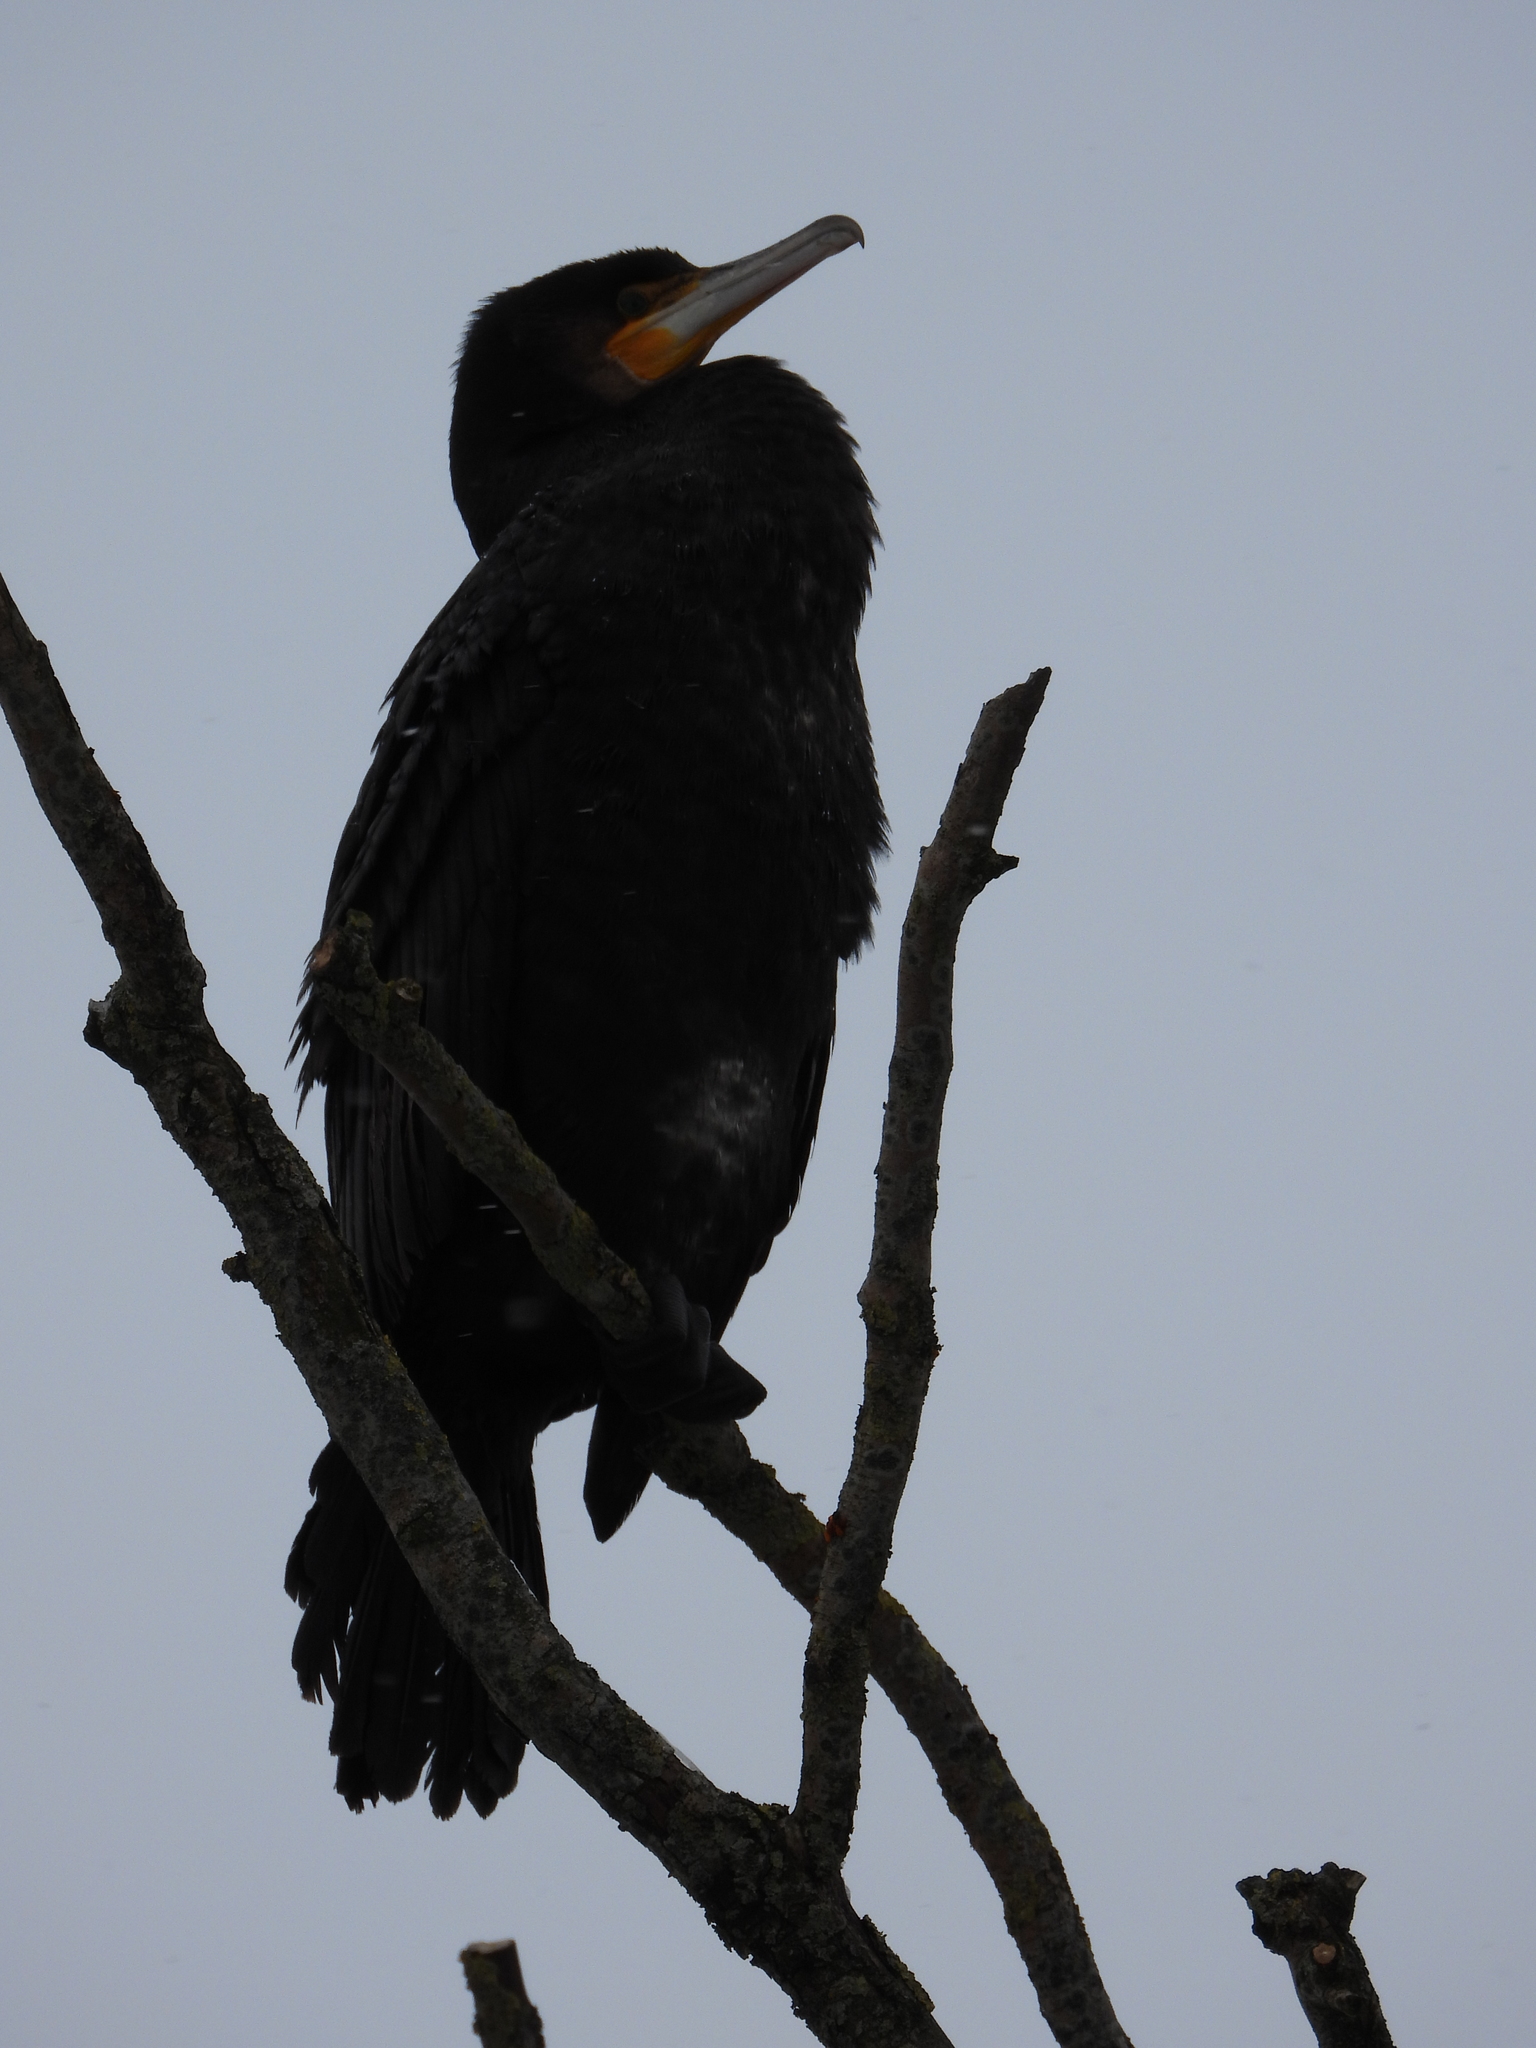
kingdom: Animalia
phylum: Chordata
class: Aves
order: Suliformes
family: Phalacrocoracidae
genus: Phalacrocorax
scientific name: Phalacrocorax carbo
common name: Great cormorant
